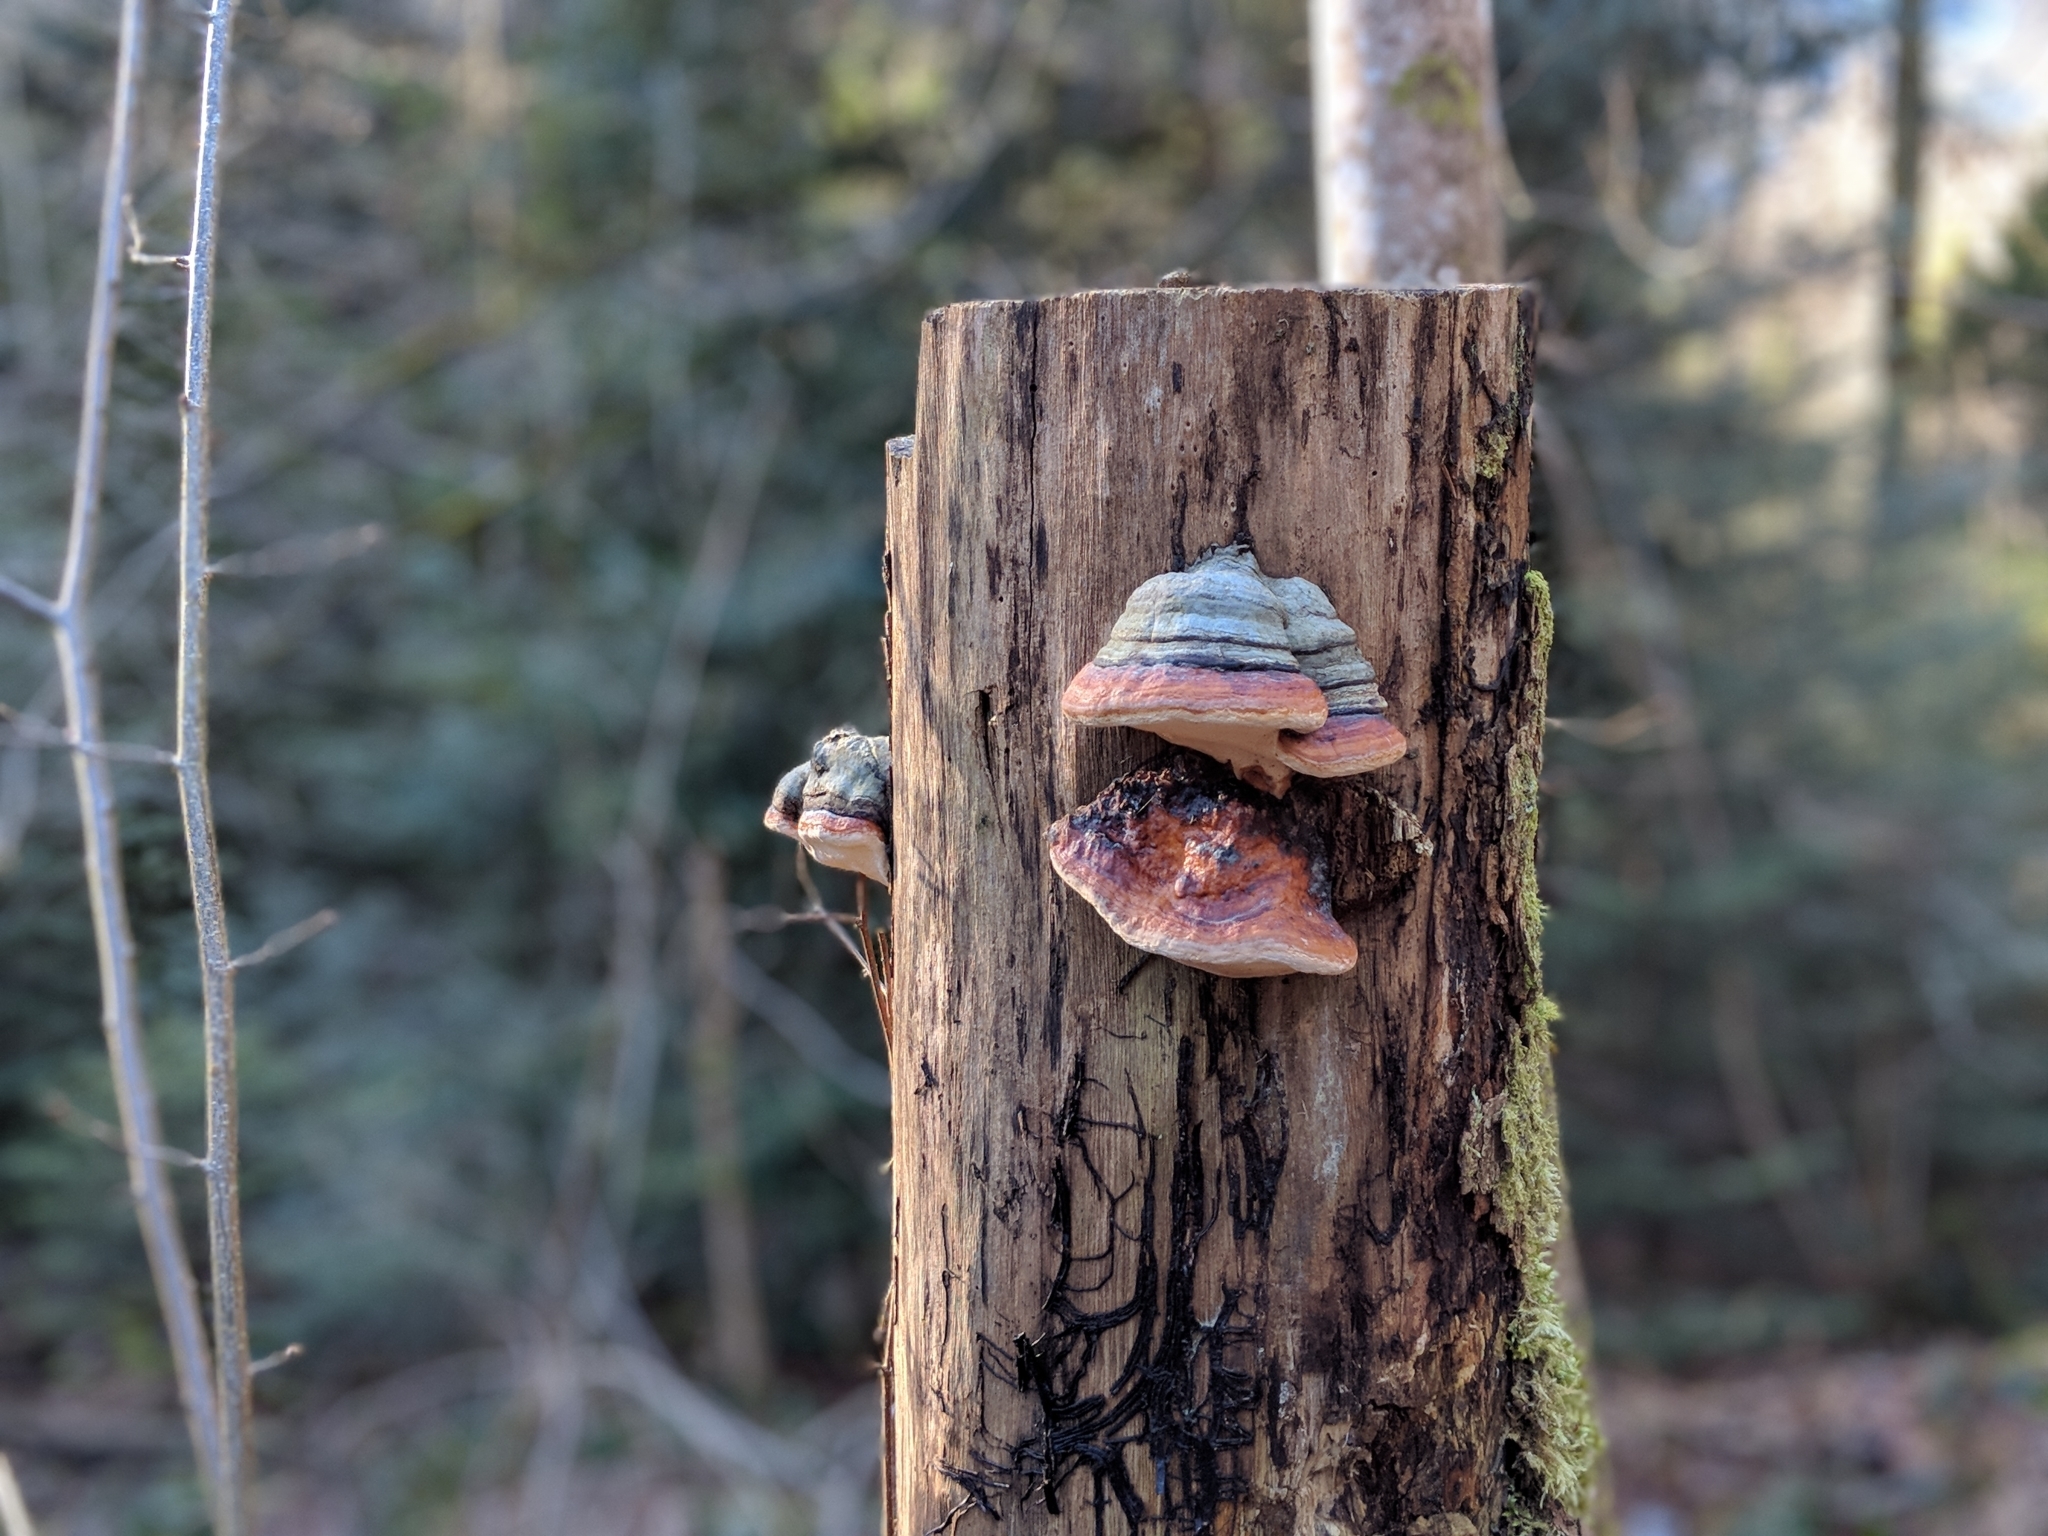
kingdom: Fungi
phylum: Basidiomycota
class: Agaricomycetes
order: Polyporales
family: Fomitopsidaceae
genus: Fomitopsis
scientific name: Fomitopsis pinicola
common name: Red-belted bracket
